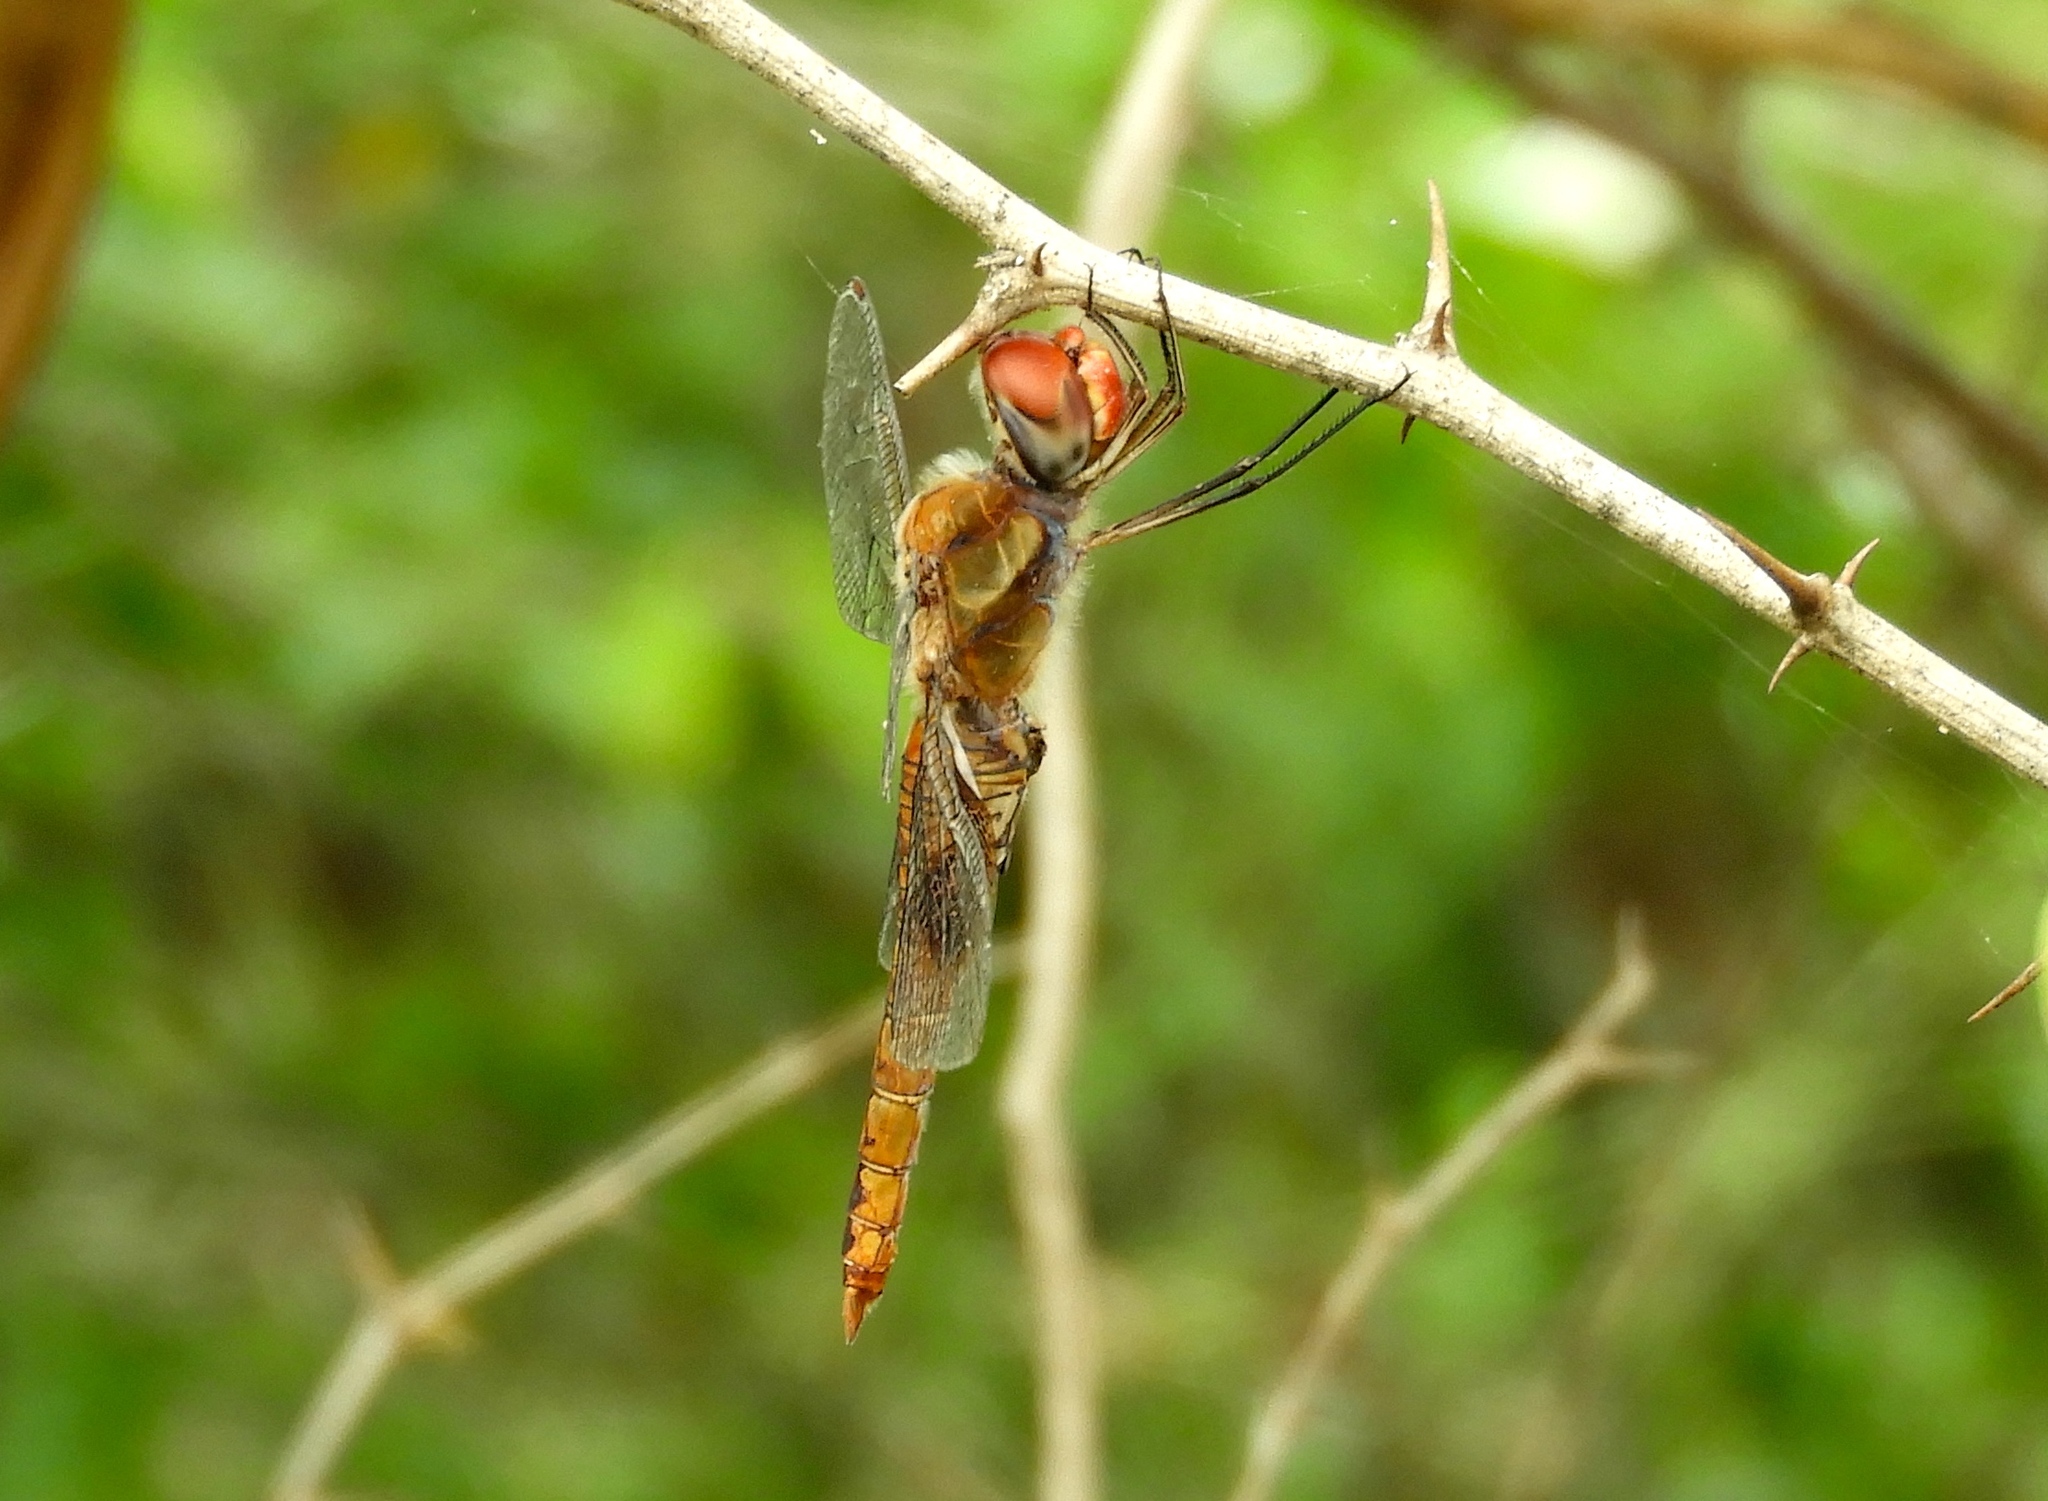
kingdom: Animalia
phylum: Arthropoda
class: Insecta
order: Odonata
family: Libellulidae
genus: Pantala
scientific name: Pantala hymenaea
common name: Spot-winged glider
